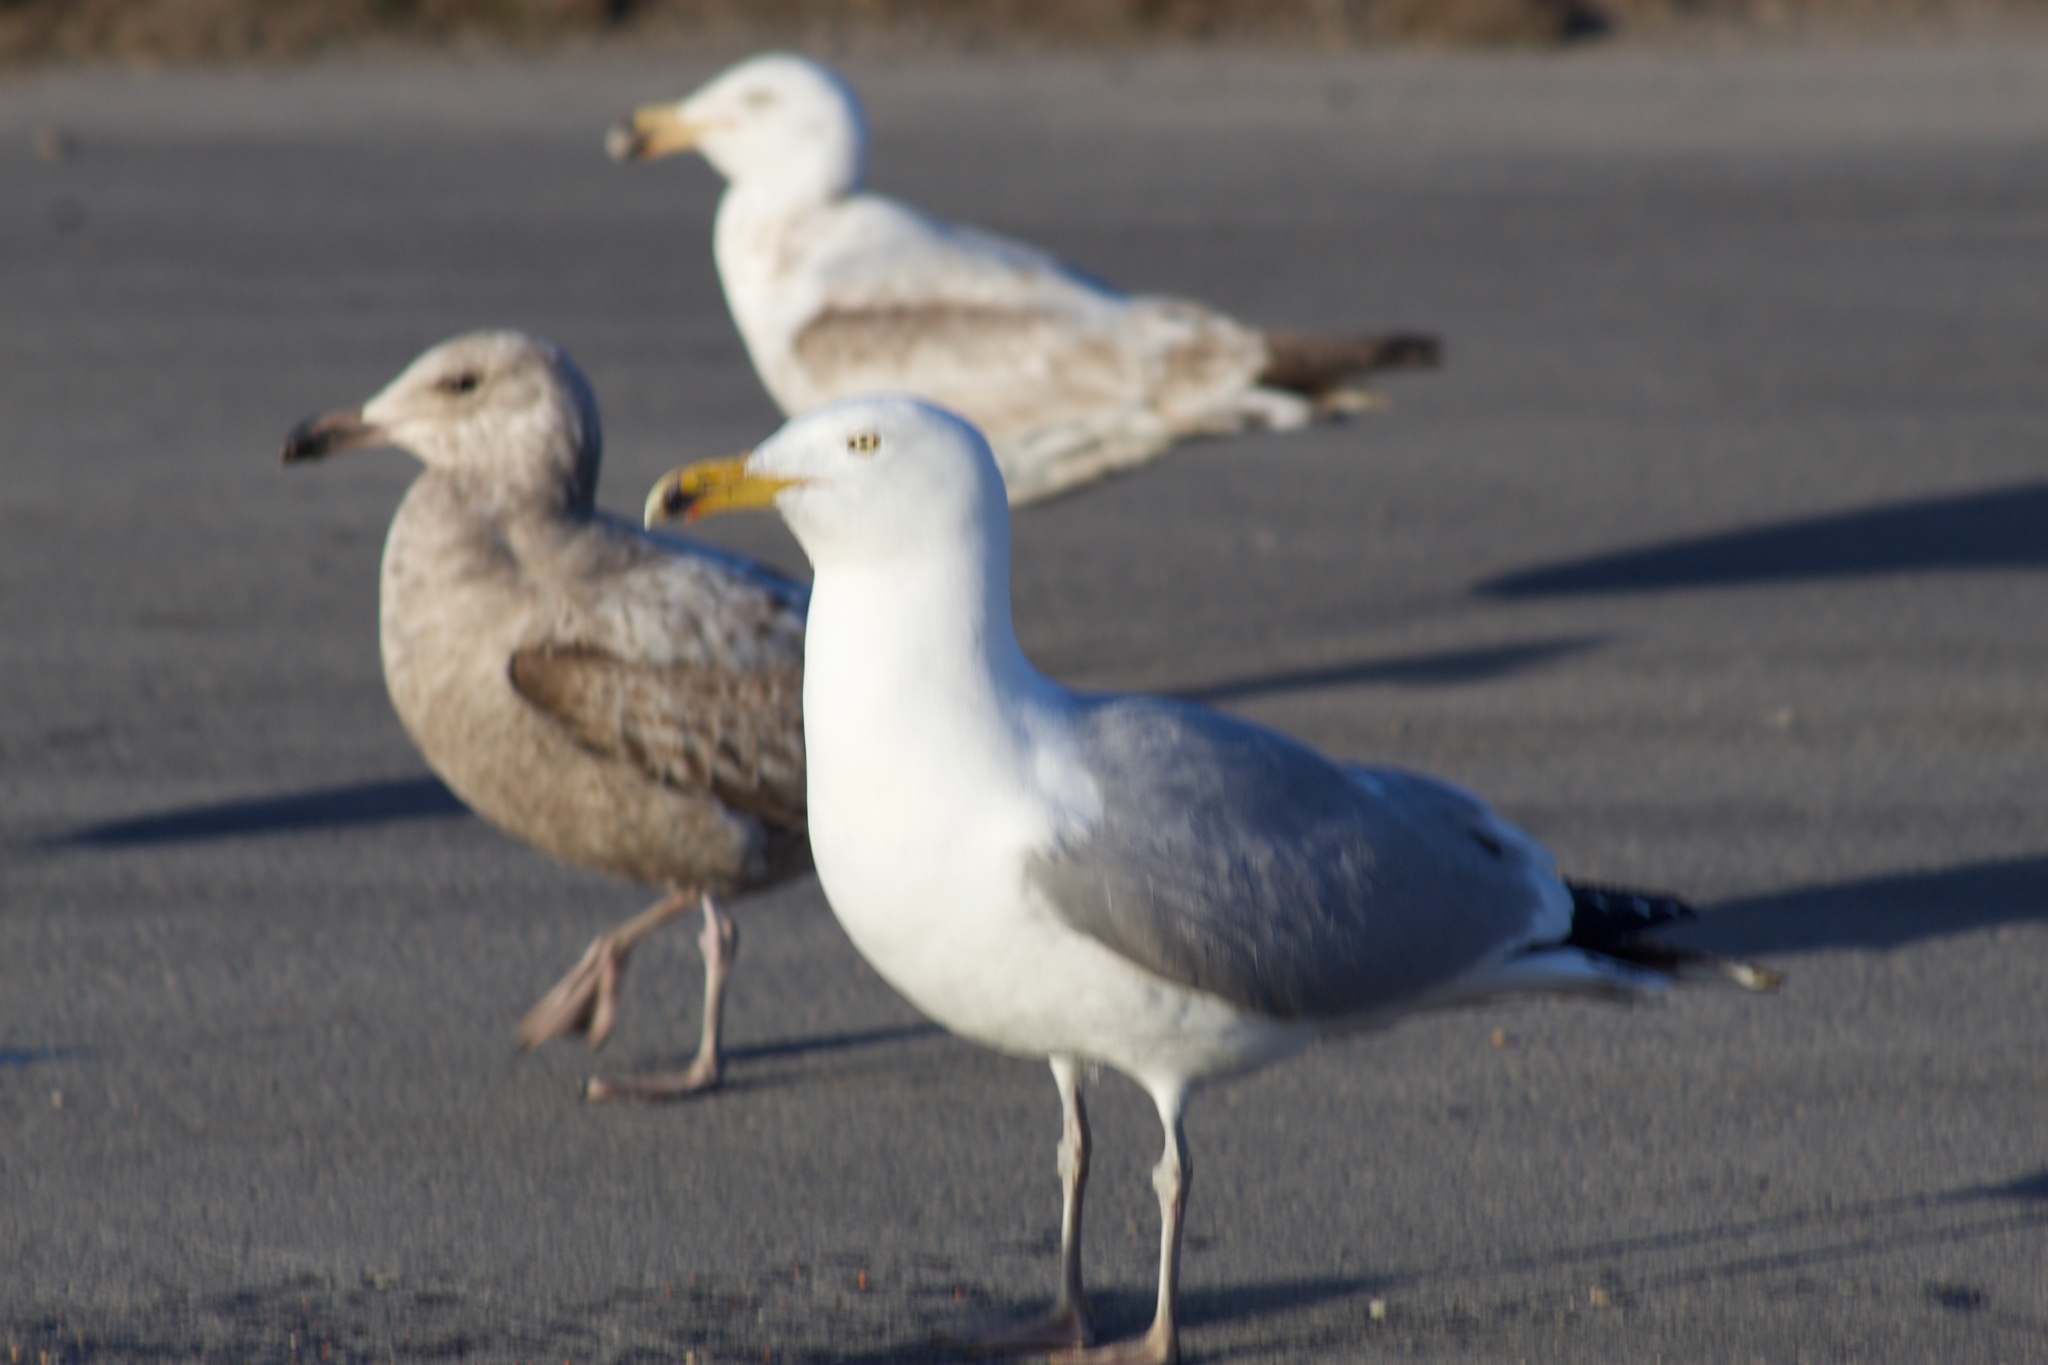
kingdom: Animalia
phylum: Chordata
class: Aves
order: Charadriiformes
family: Laridae
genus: Larus
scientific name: Larus argentatus
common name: Herring gull
